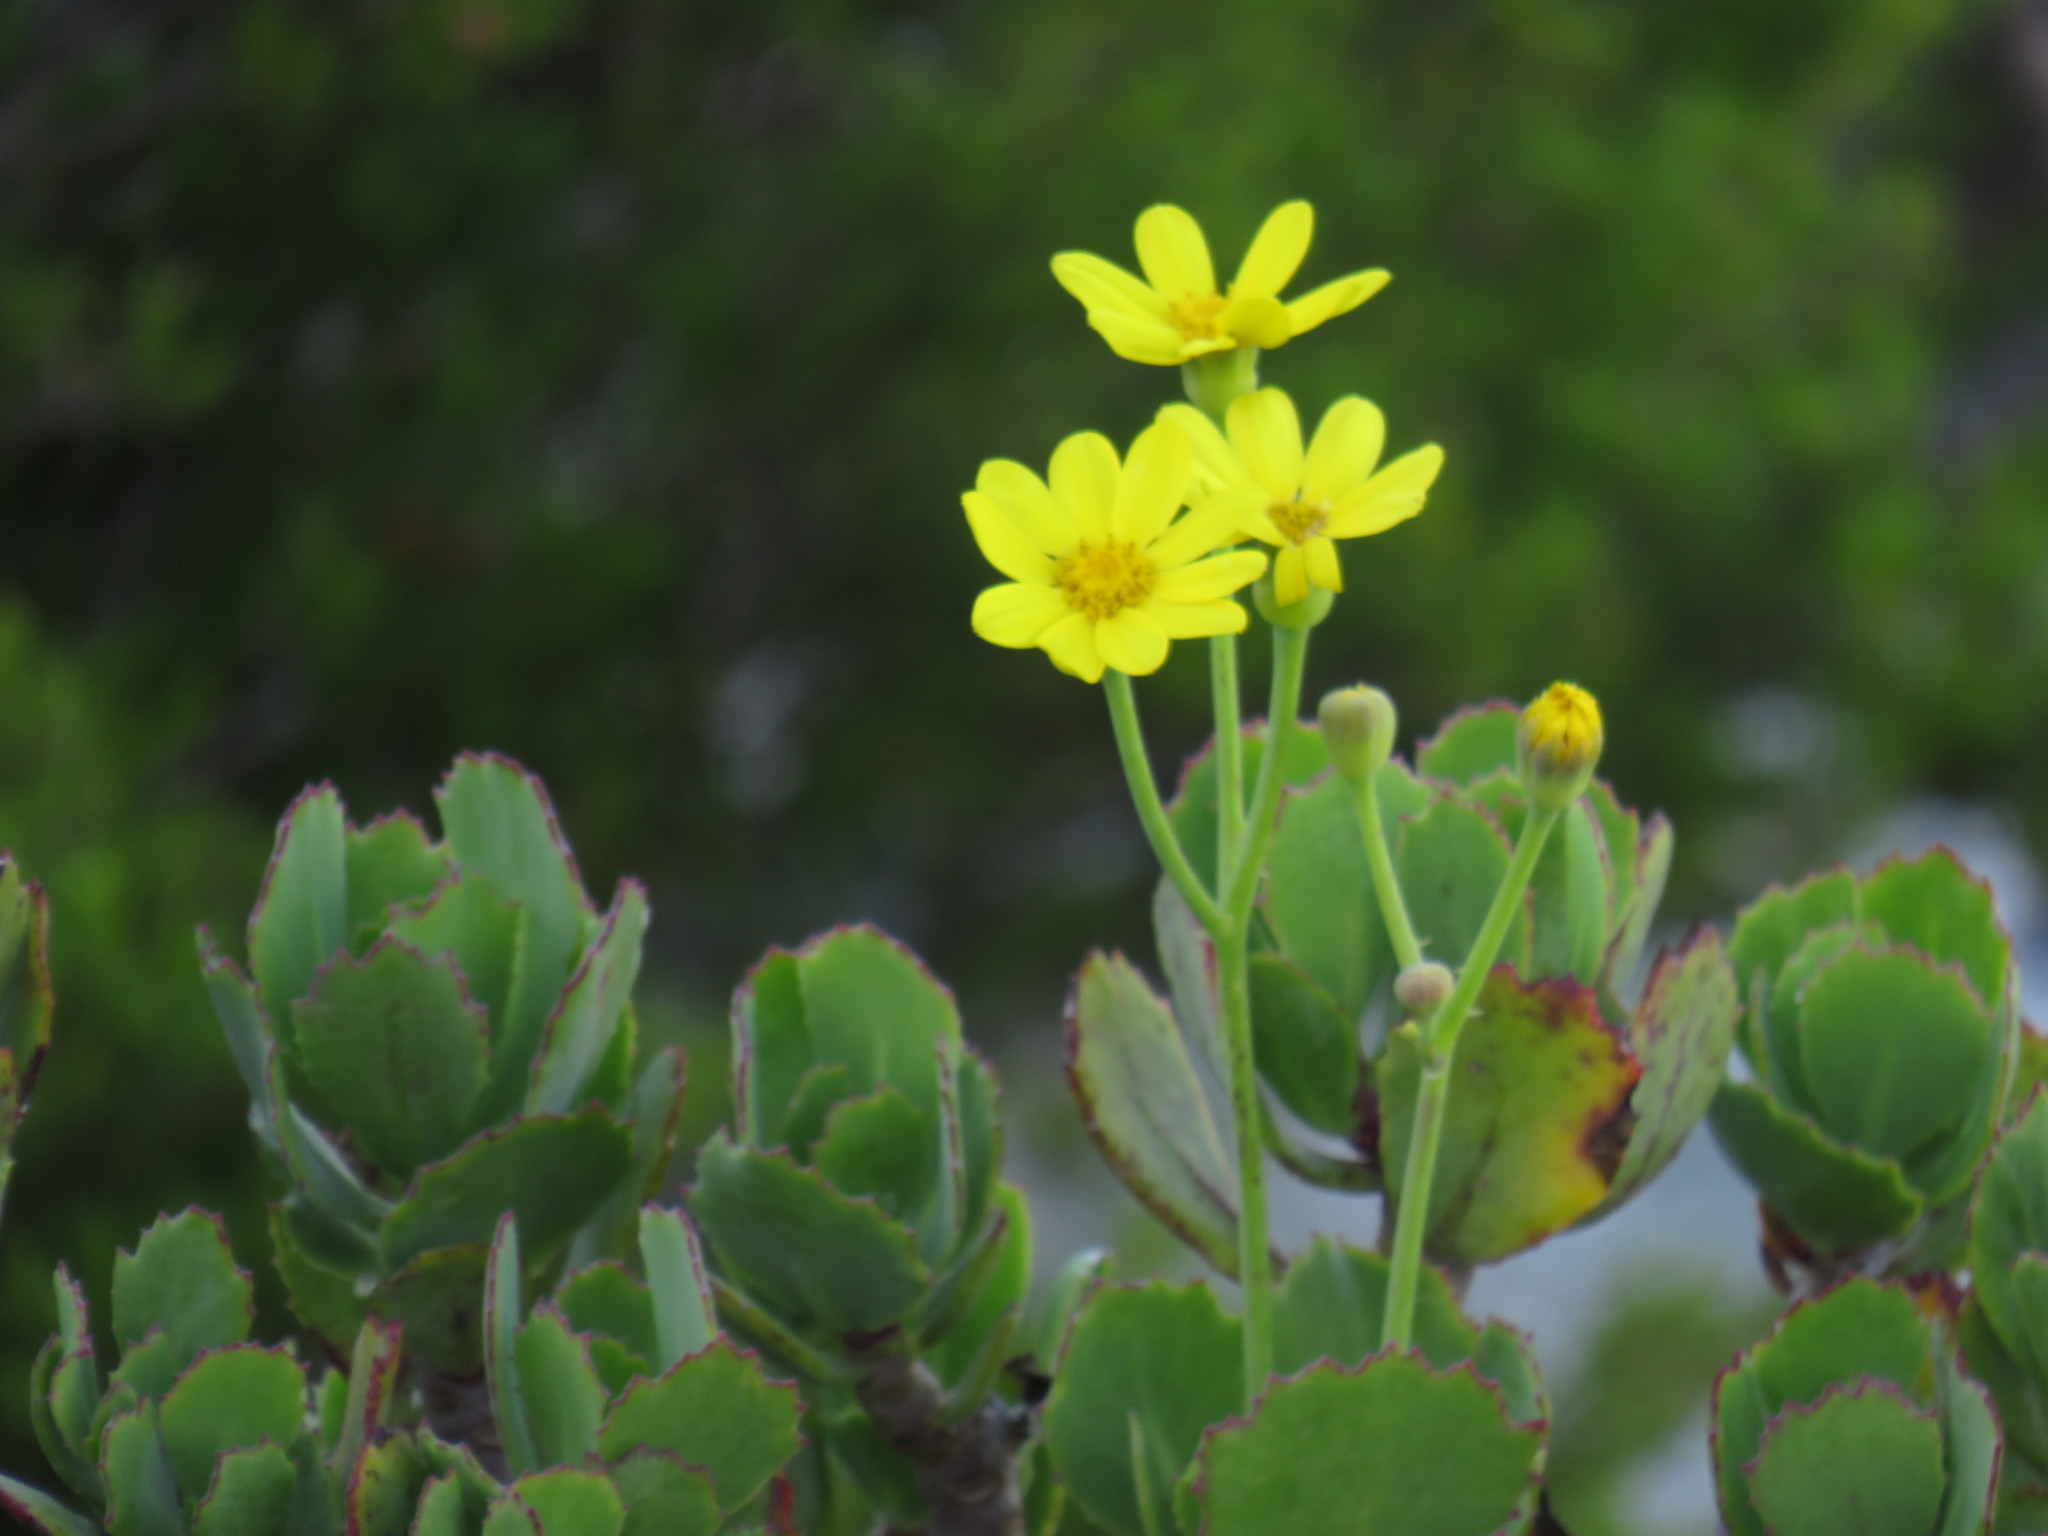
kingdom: Plantae
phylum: Tracheophyta
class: Magnoliopsida
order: Asterales
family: Asteraceae
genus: Othonna
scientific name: Othonna dentata
